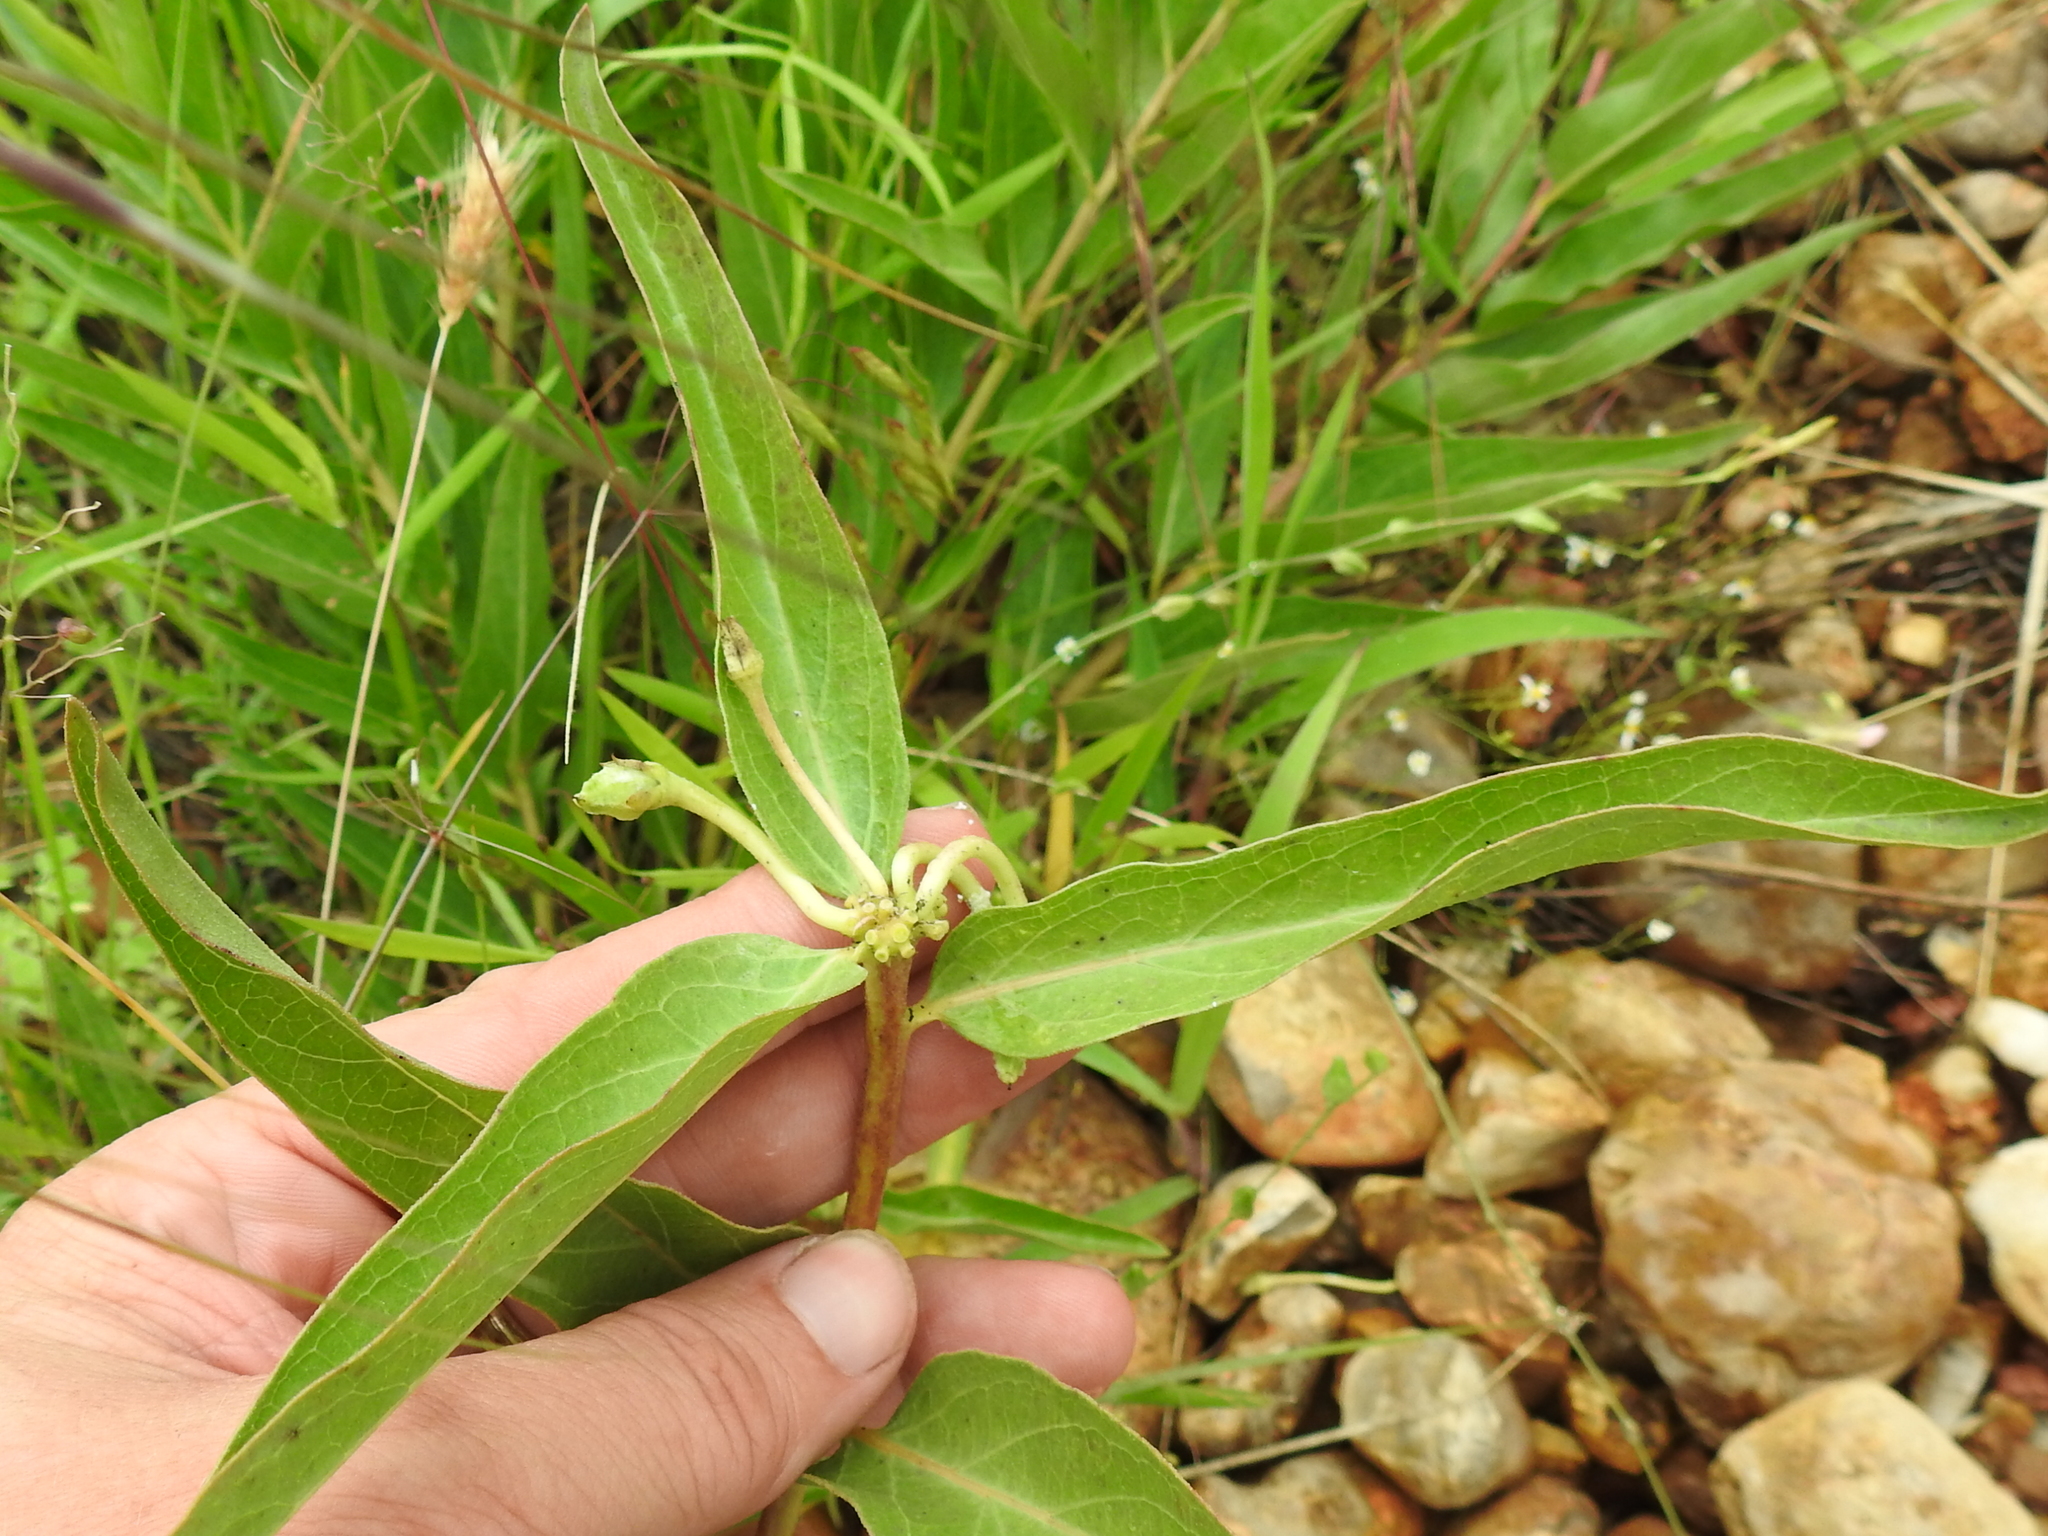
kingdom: Plantae
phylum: Tracheophyta
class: Magnoliopsida
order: Gentianales
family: Apocynaceae
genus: Asclepias
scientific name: Asclepias asperula
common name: Antelope horns
